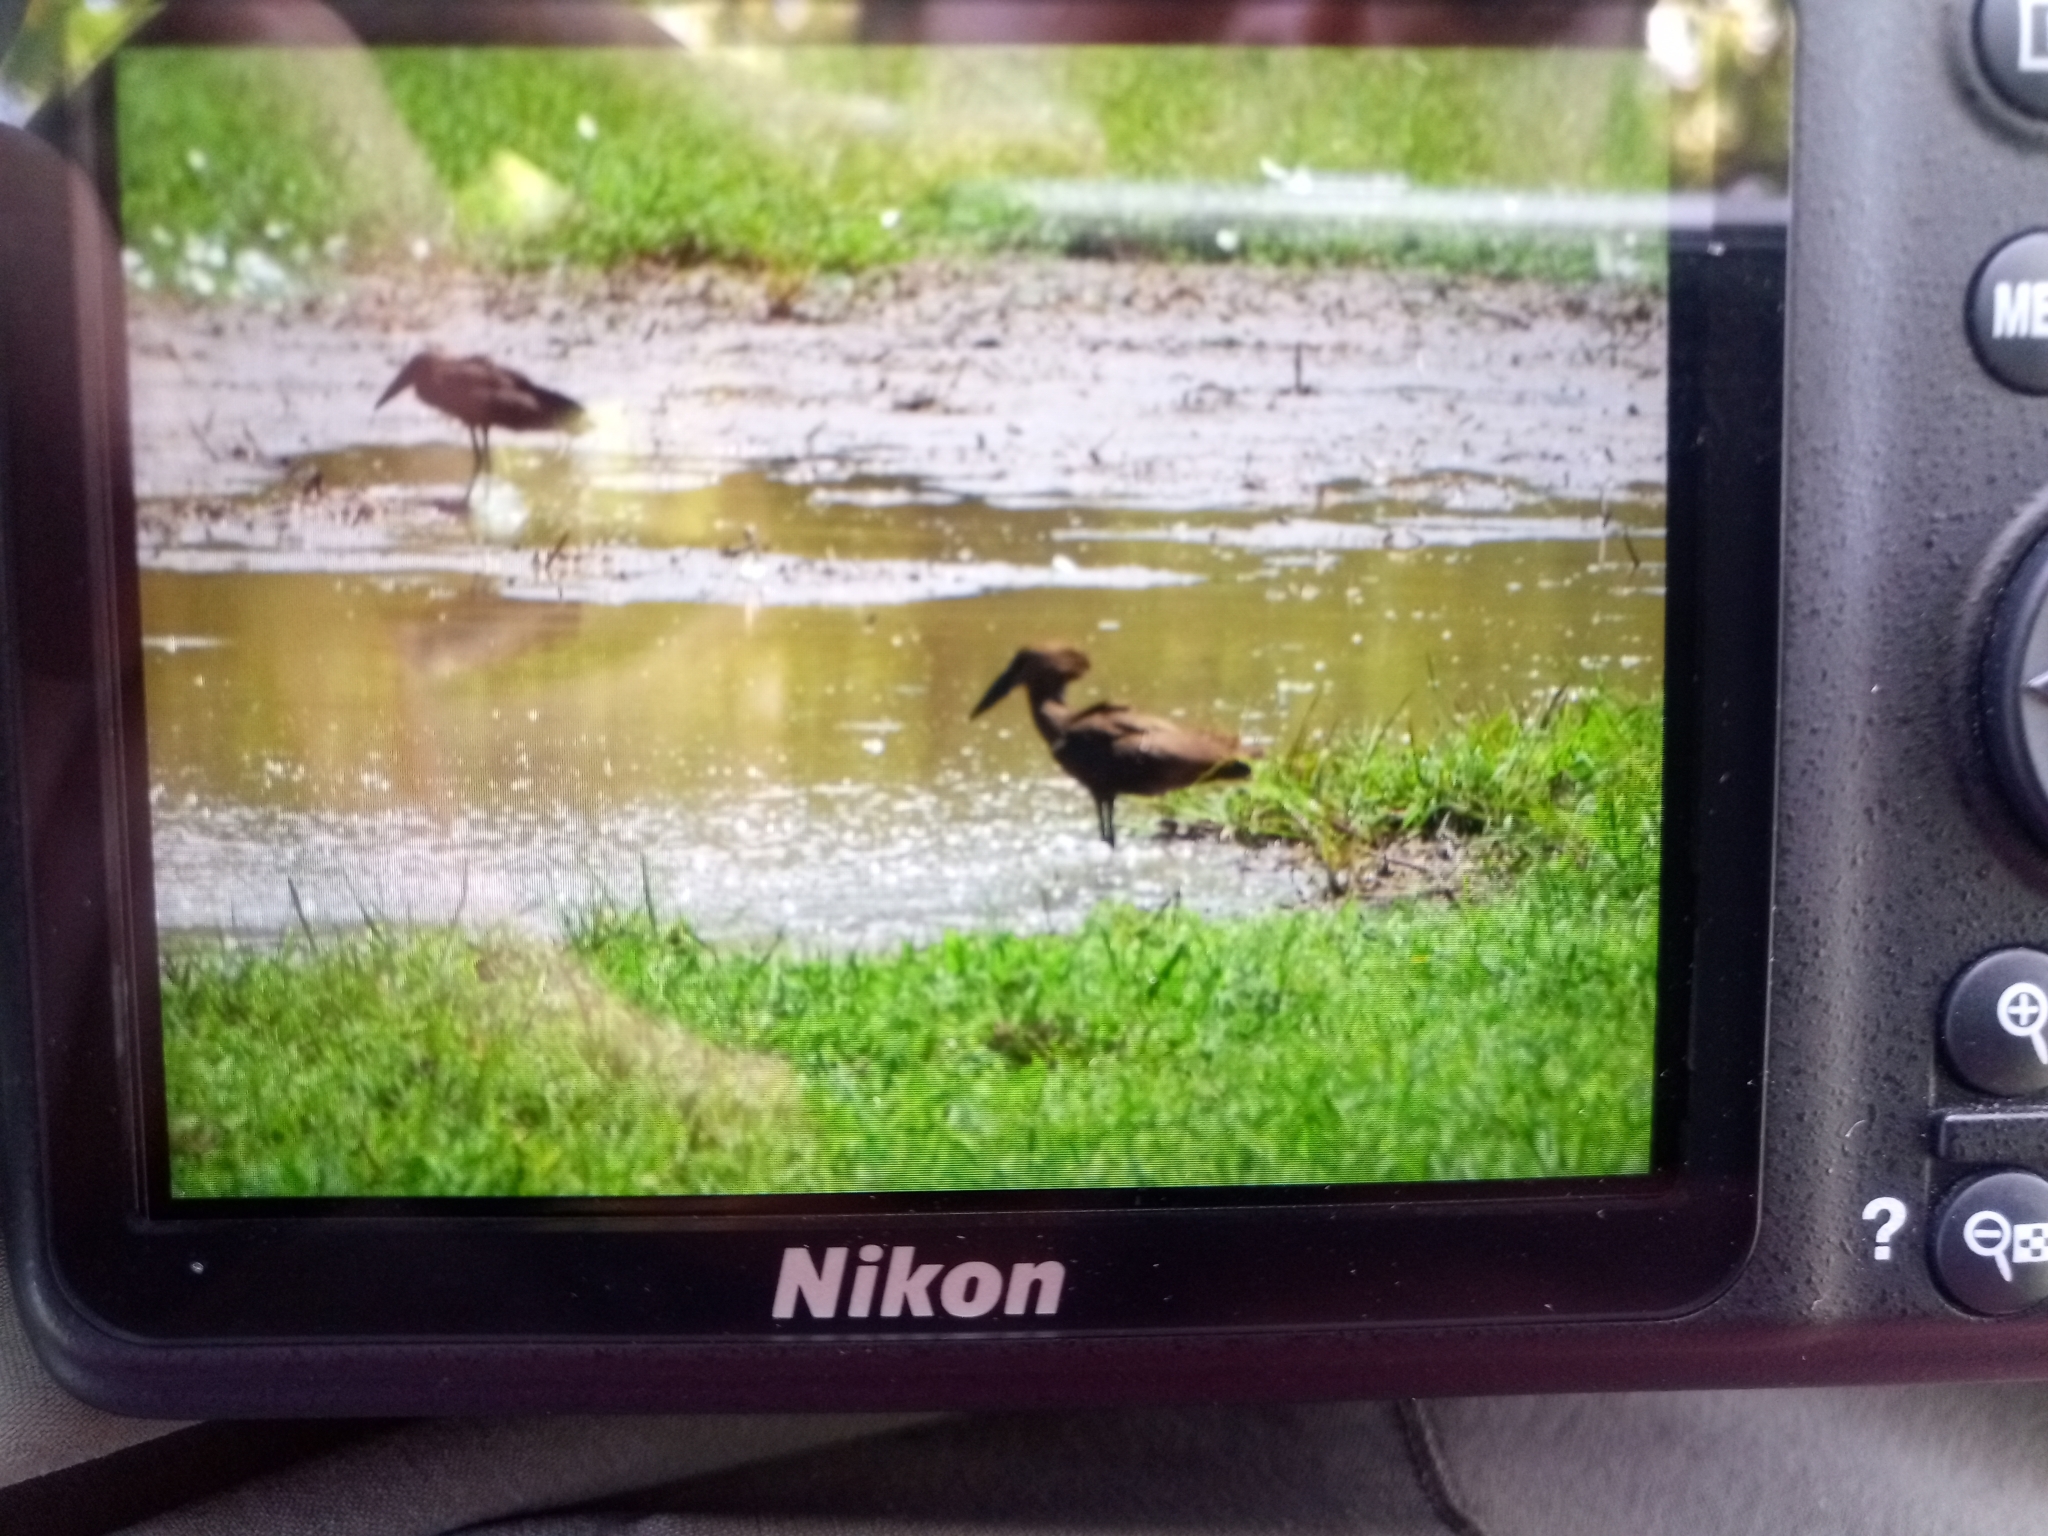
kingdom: Animalia
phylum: Chordata
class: Aves
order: Pelecaniformes
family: Scopidae
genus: Scopus
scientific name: Scopus umbretta
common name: Hamerkop
